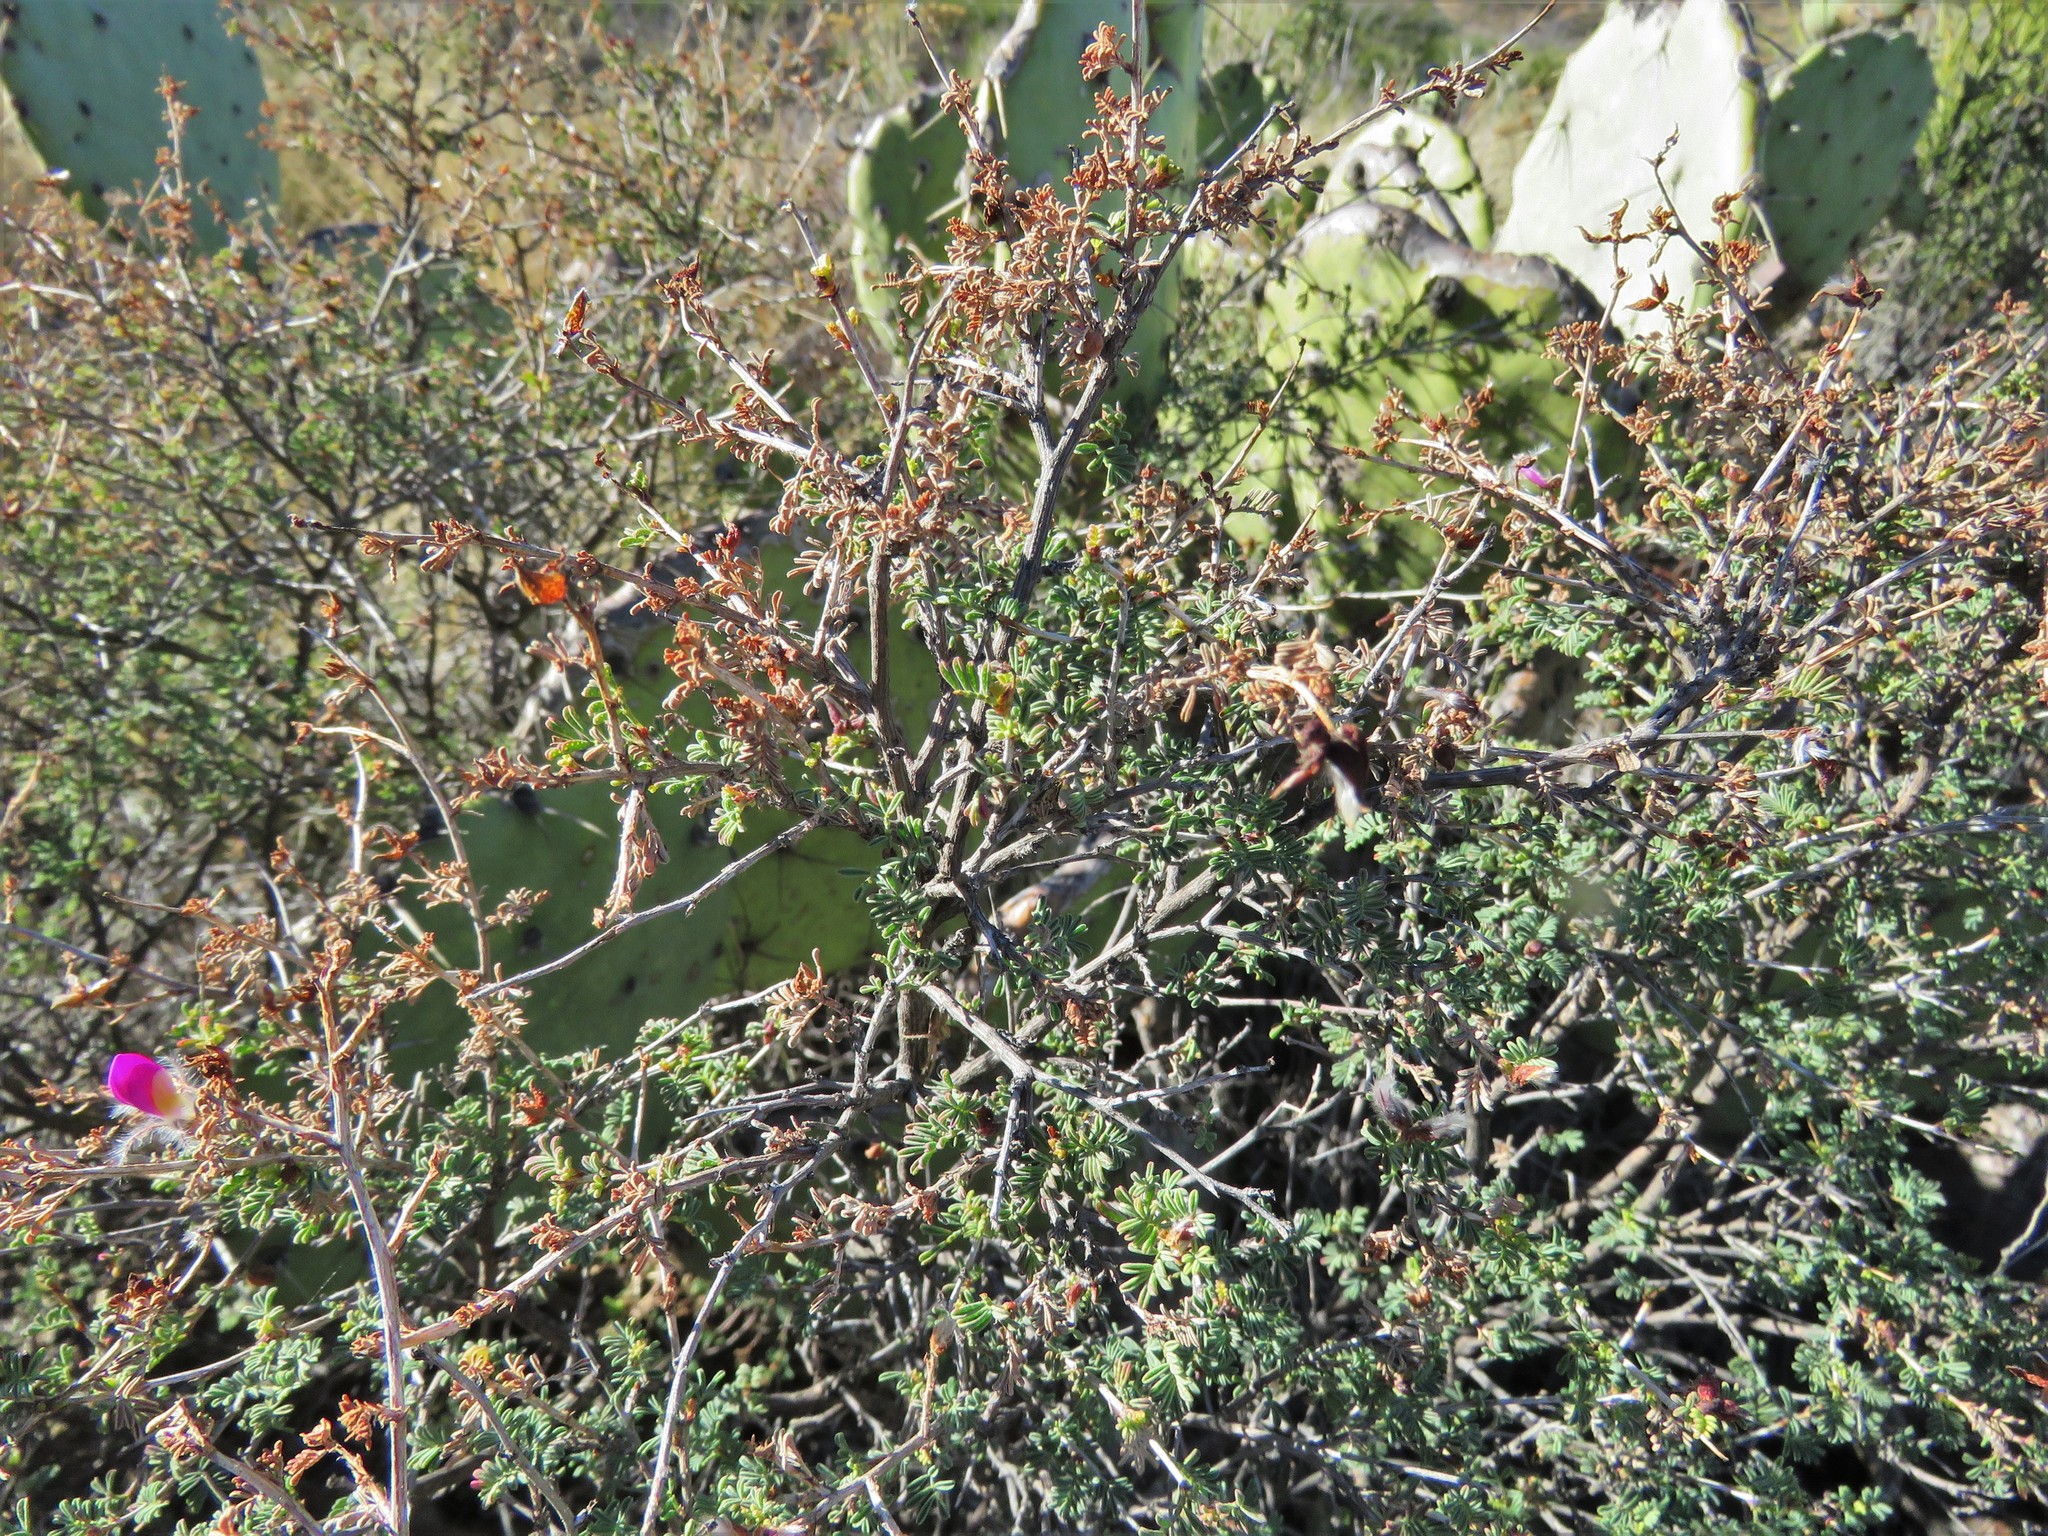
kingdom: Plantae
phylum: Tracheophyta
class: Magnoliopsida
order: Fabales
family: Fabaceae
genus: Dalea
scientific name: Dalea formosa
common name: Feather-plume dalea
